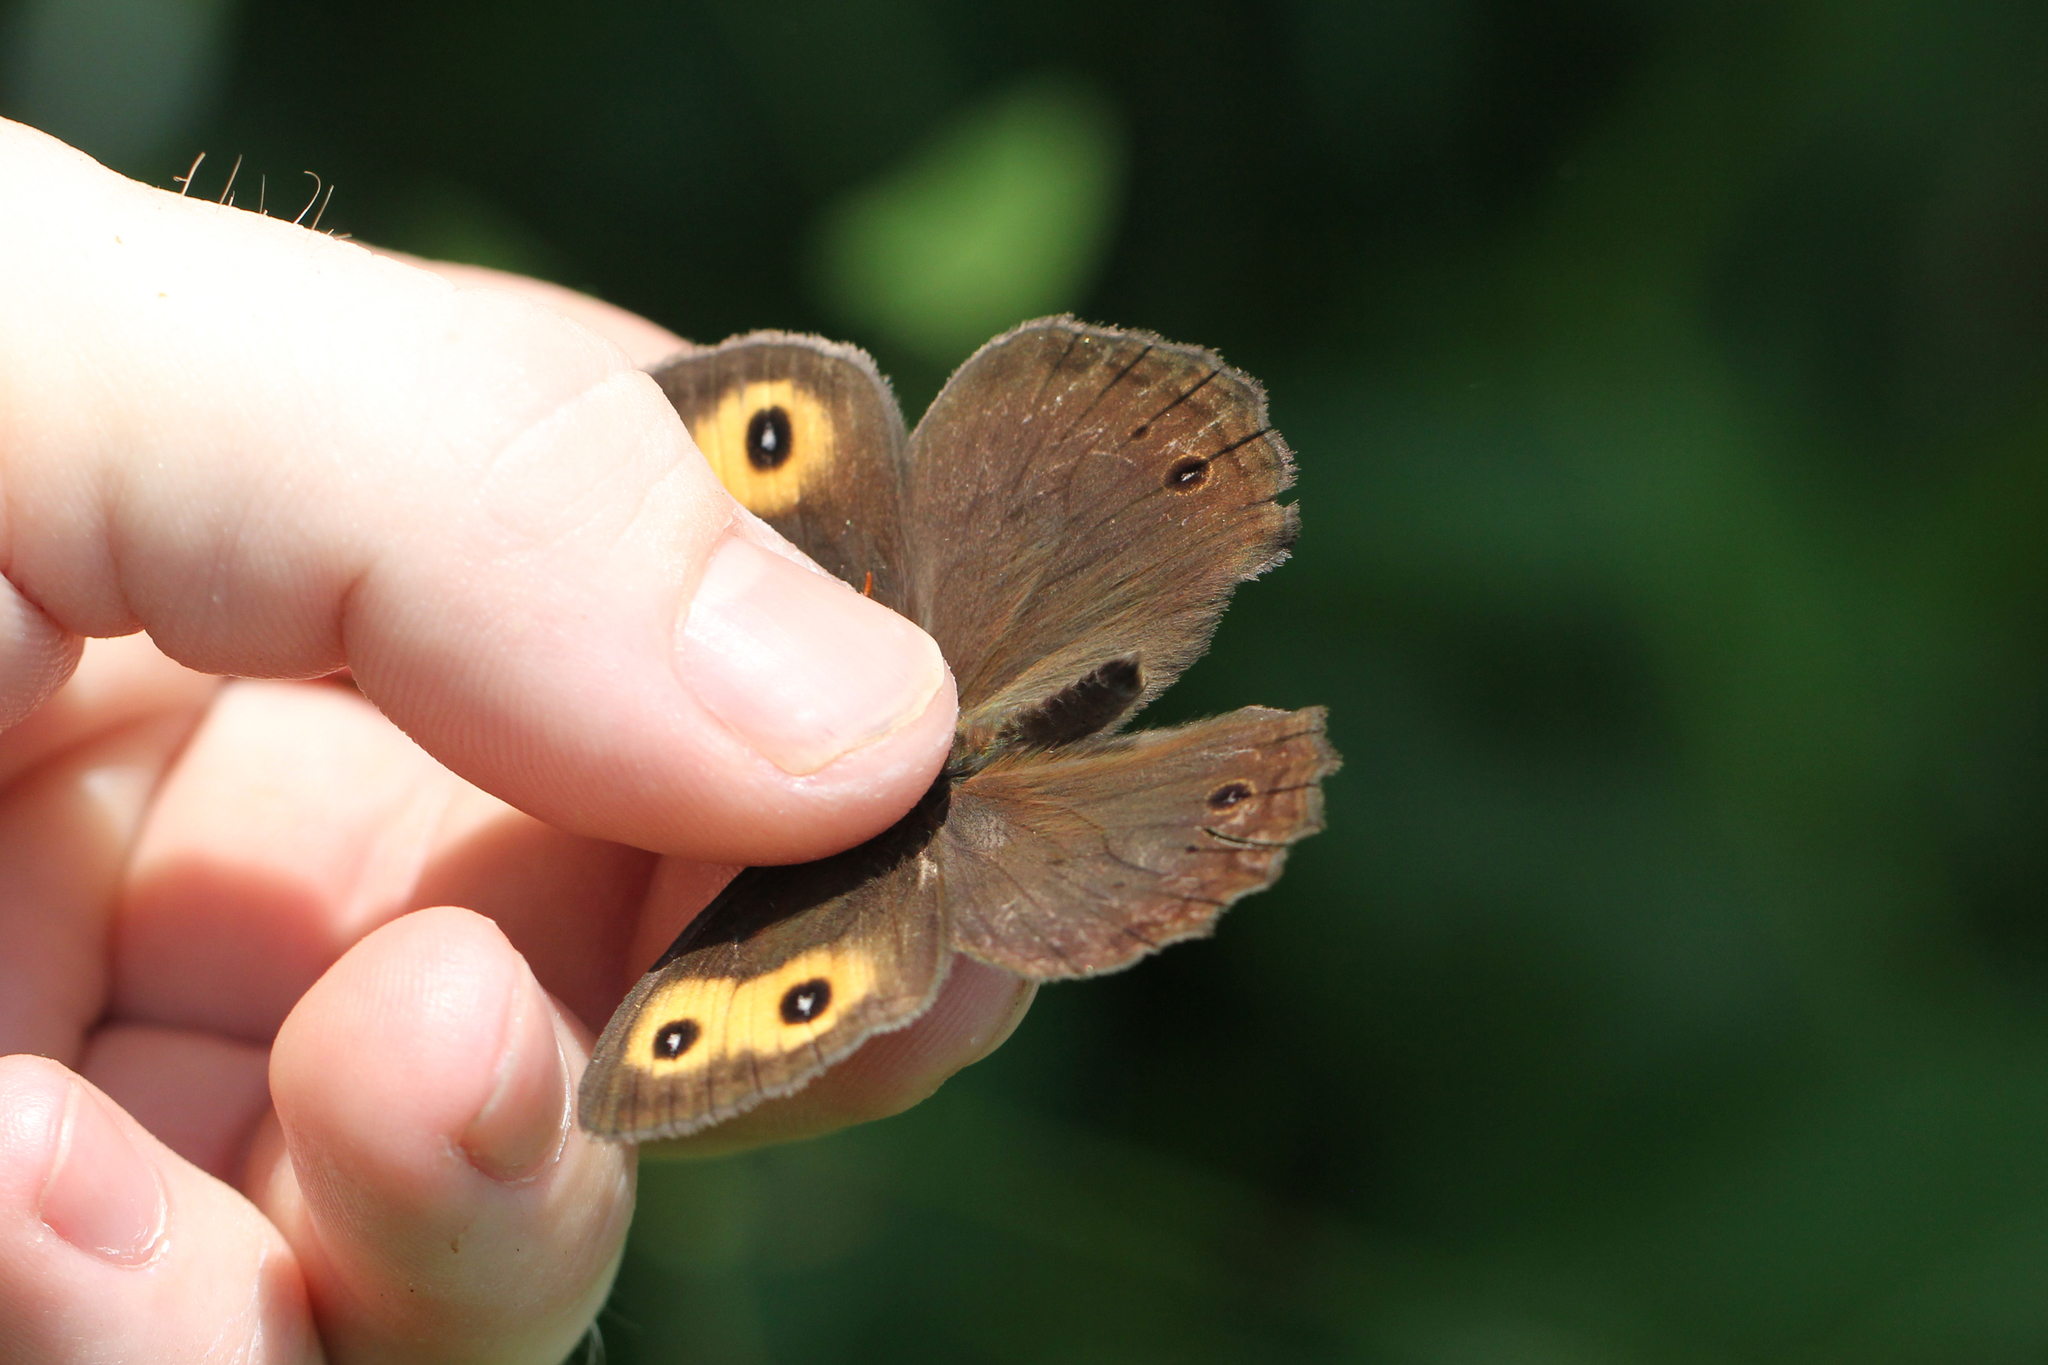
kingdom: Animalia
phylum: Arthropoda
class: Insecta
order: Lepidoptera
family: Nymphalidae
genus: Cercyonis
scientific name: Cercyonis pegala
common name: Common wood-nymph
